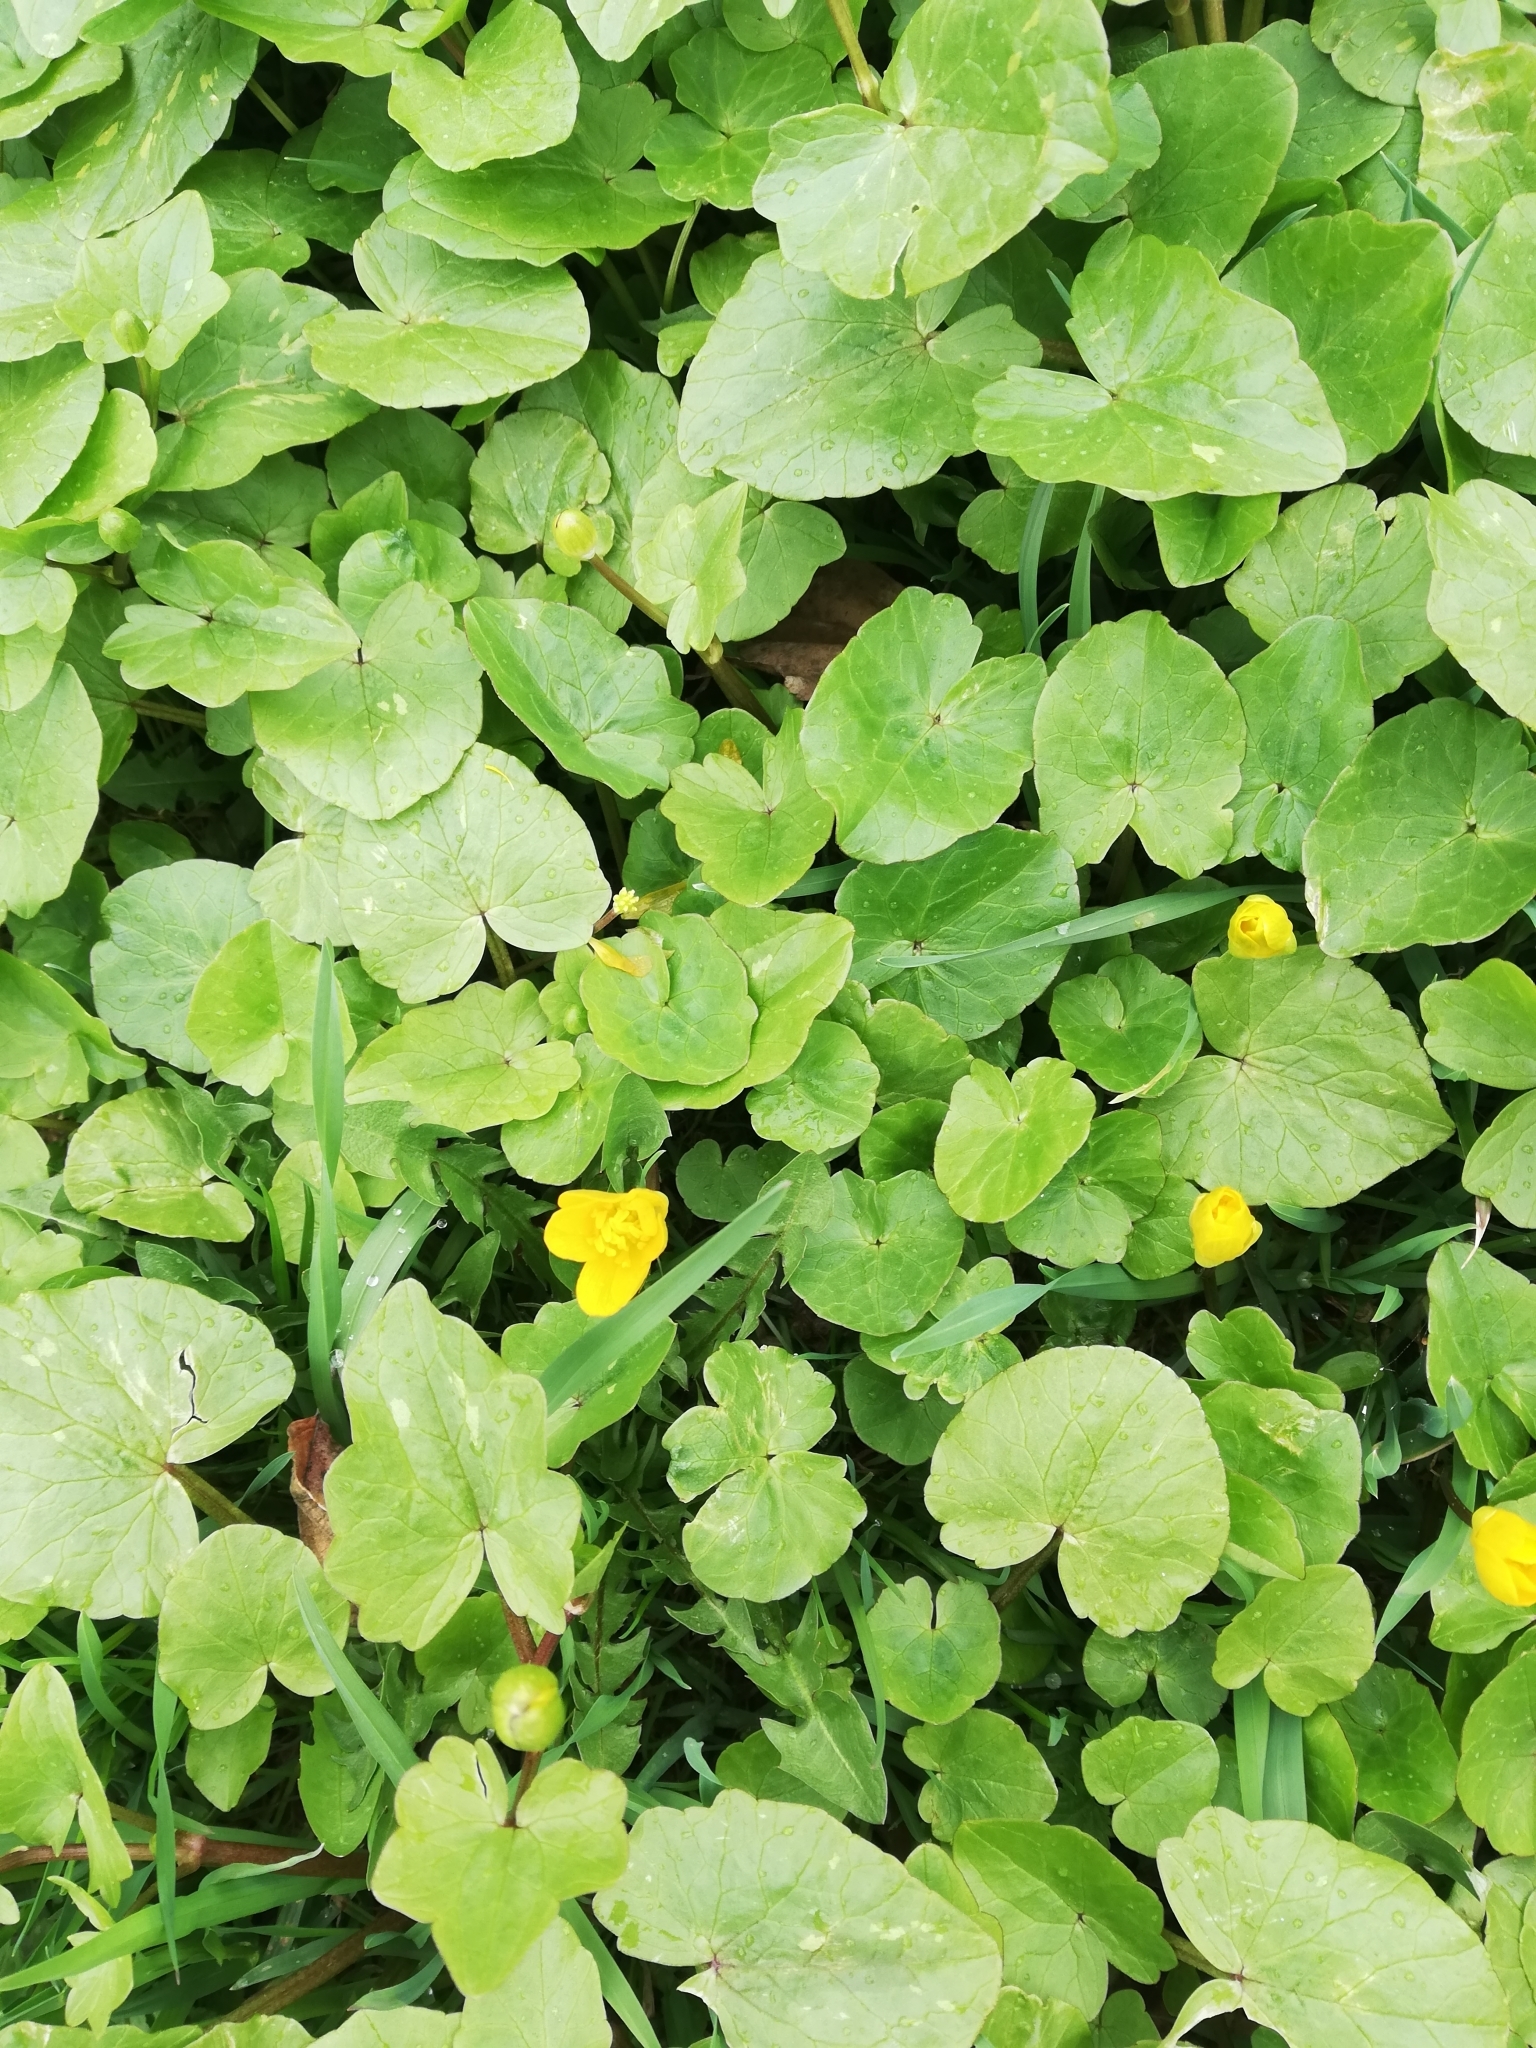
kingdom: Plantae
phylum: Tracheophyta
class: Magnoliopsida
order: Ranunculales
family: Ranunculaceae
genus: Ficaria
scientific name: Ficaria verna
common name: Lesser celandine
